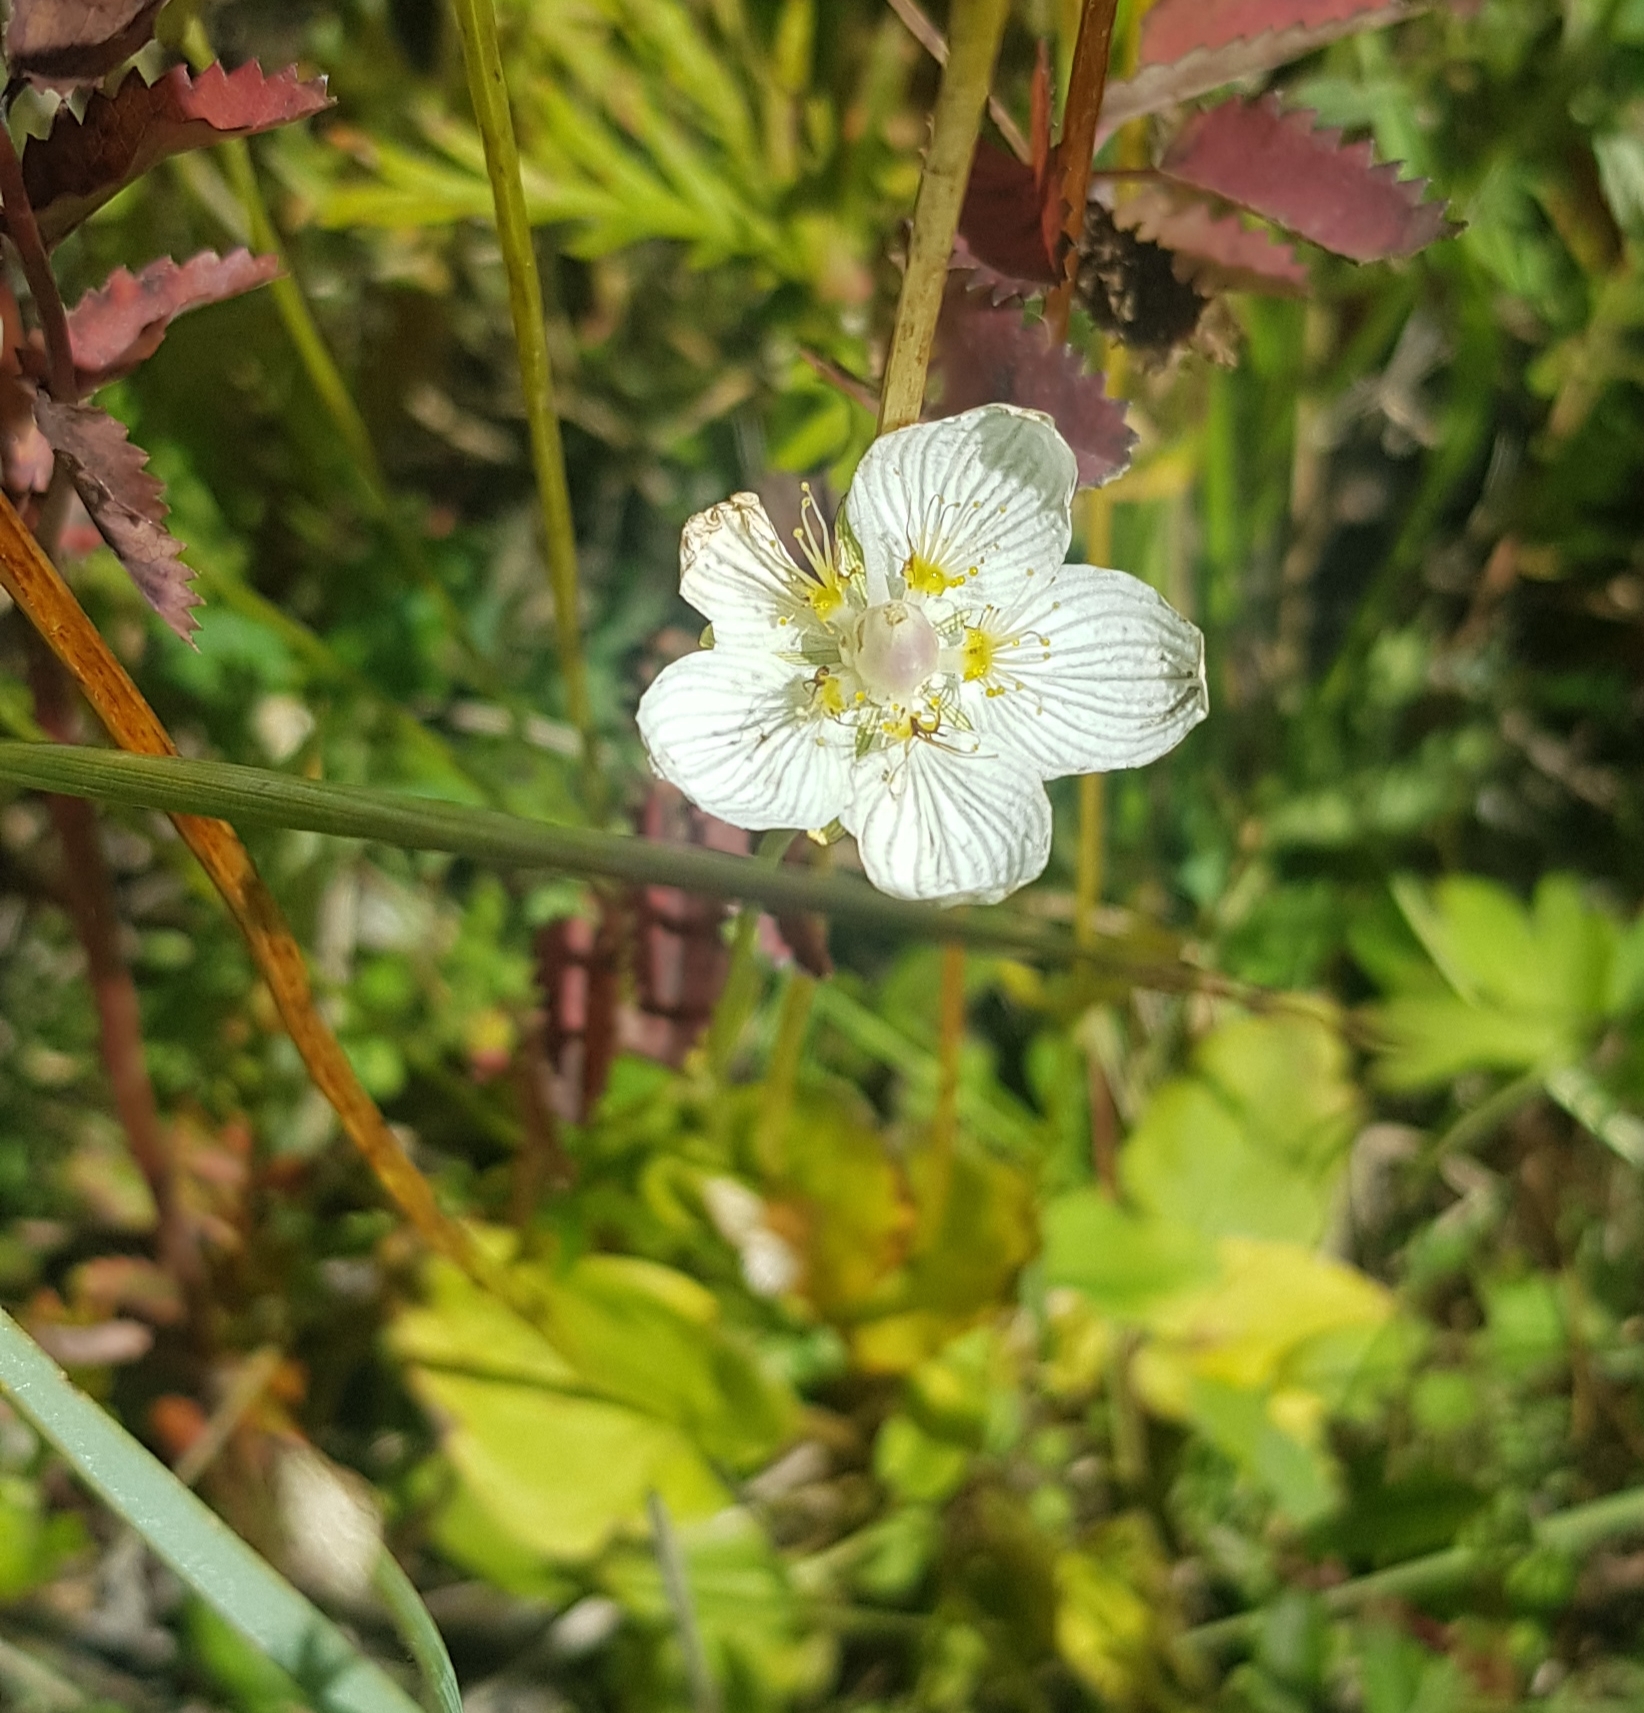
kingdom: Plantae
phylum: Tracheophyta
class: Magnoliopsida
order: Celastrales
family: Parnassiaceae
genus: Parnassia
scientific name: Parnassia palustris
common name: Grass-of-parnassus
